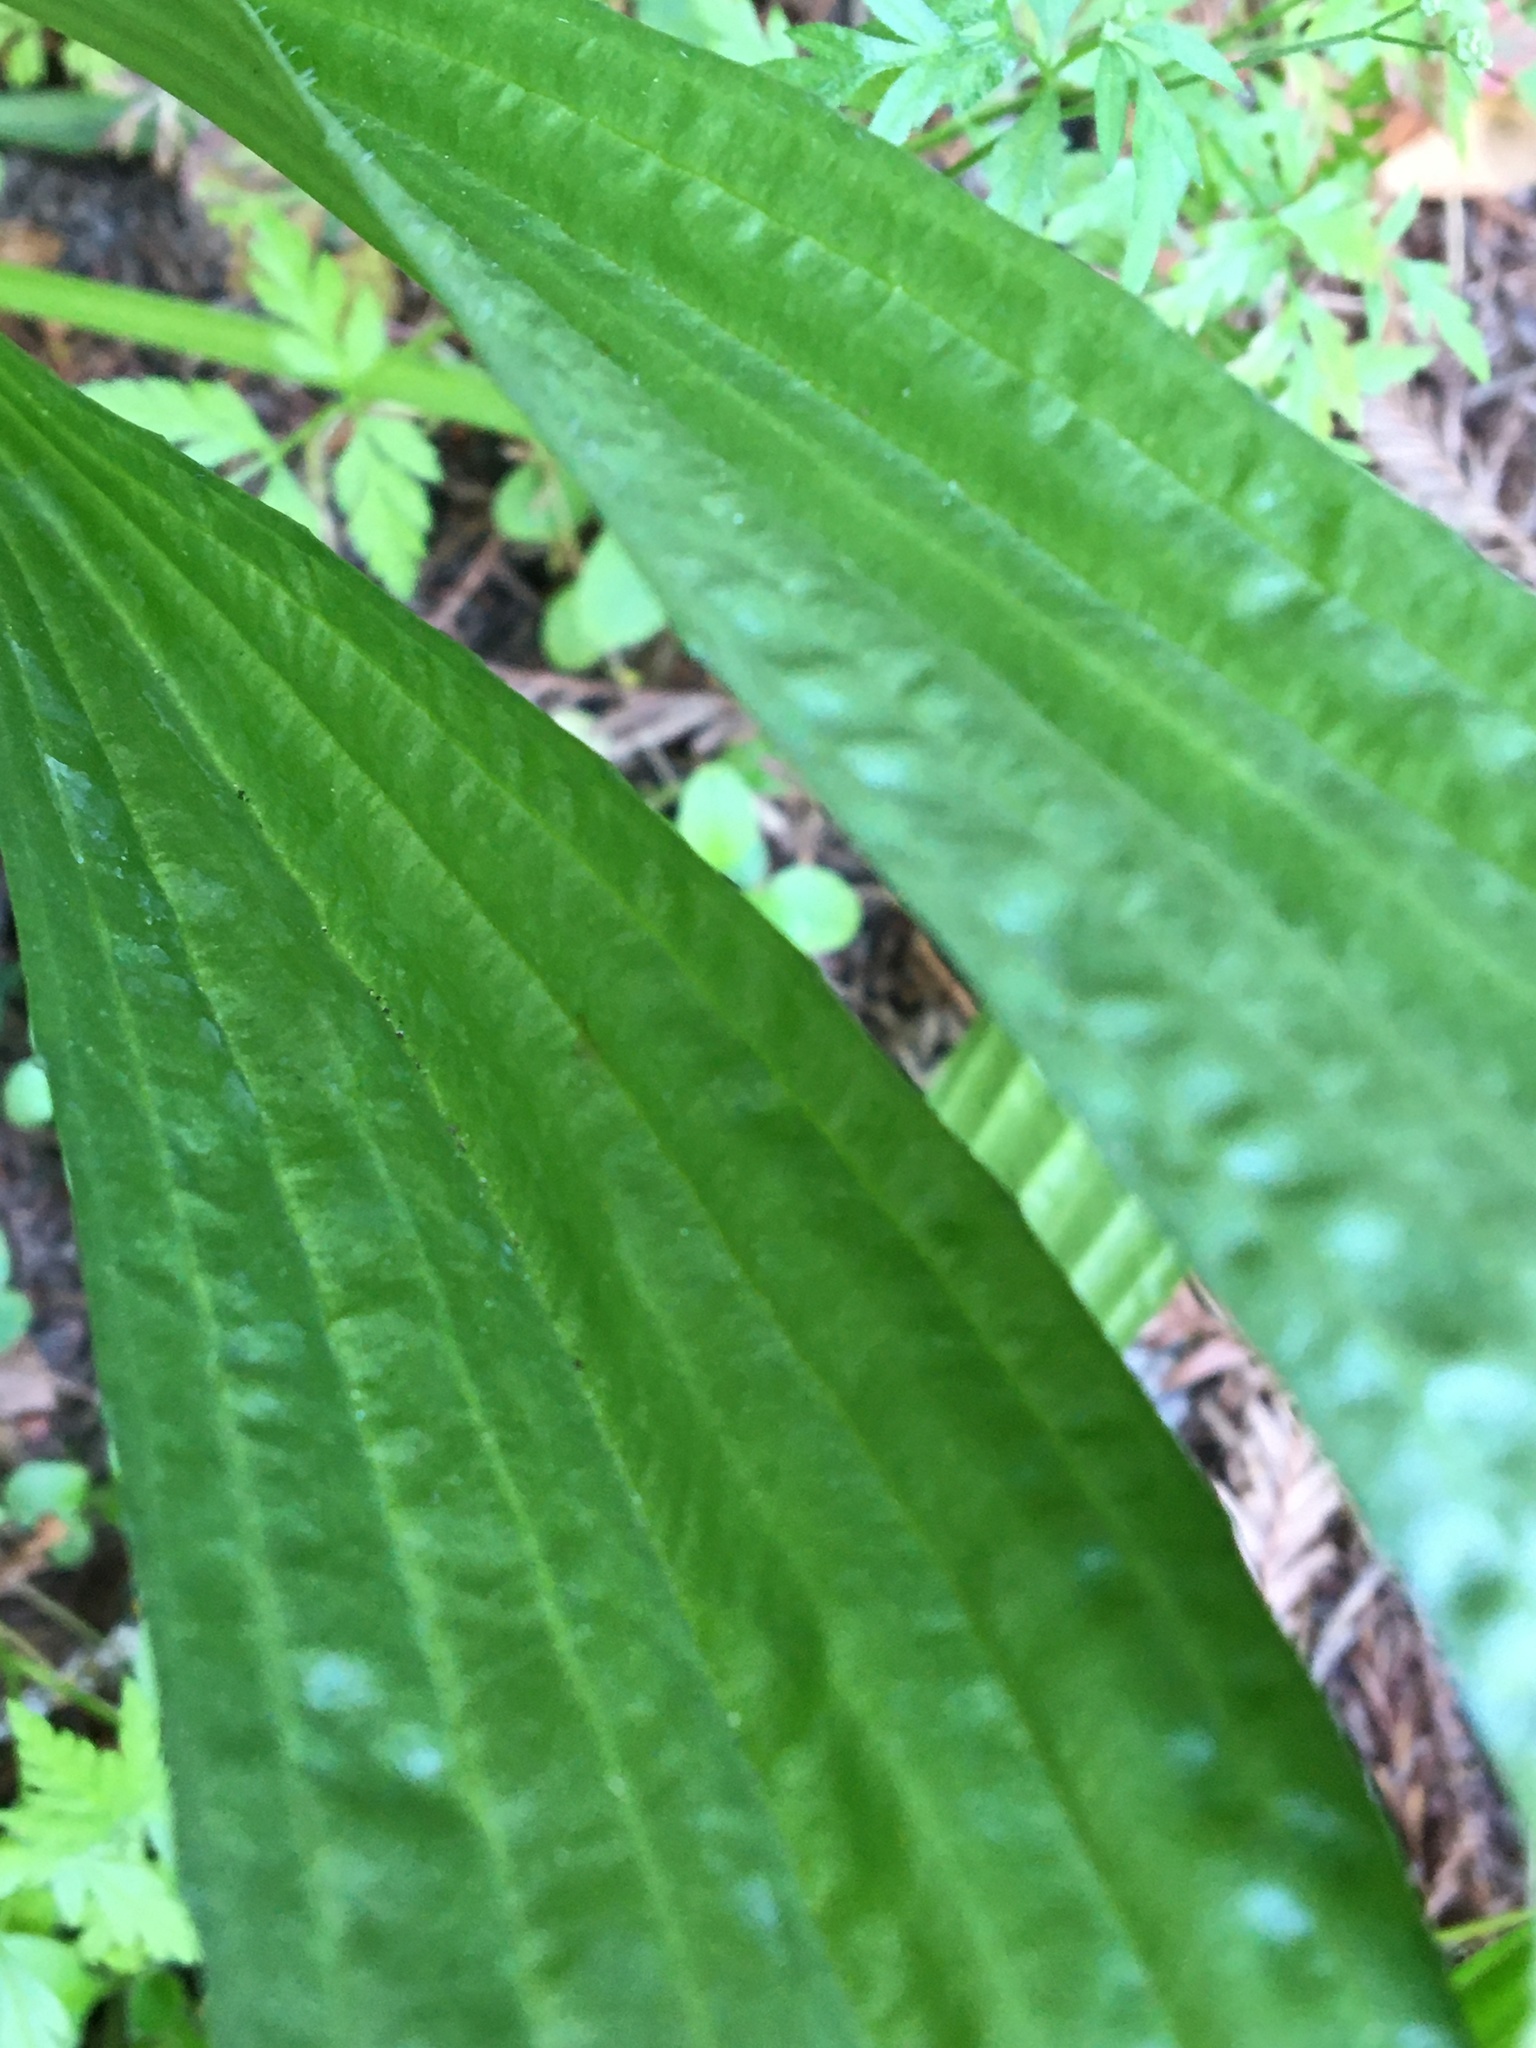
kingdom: Plantae
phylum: Tracheophyta
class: Magnoliopsida
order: Lamiales
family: Plantaginaceae
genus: Plantago
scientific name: Plantago lanceolata
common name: Ribwort plantain
